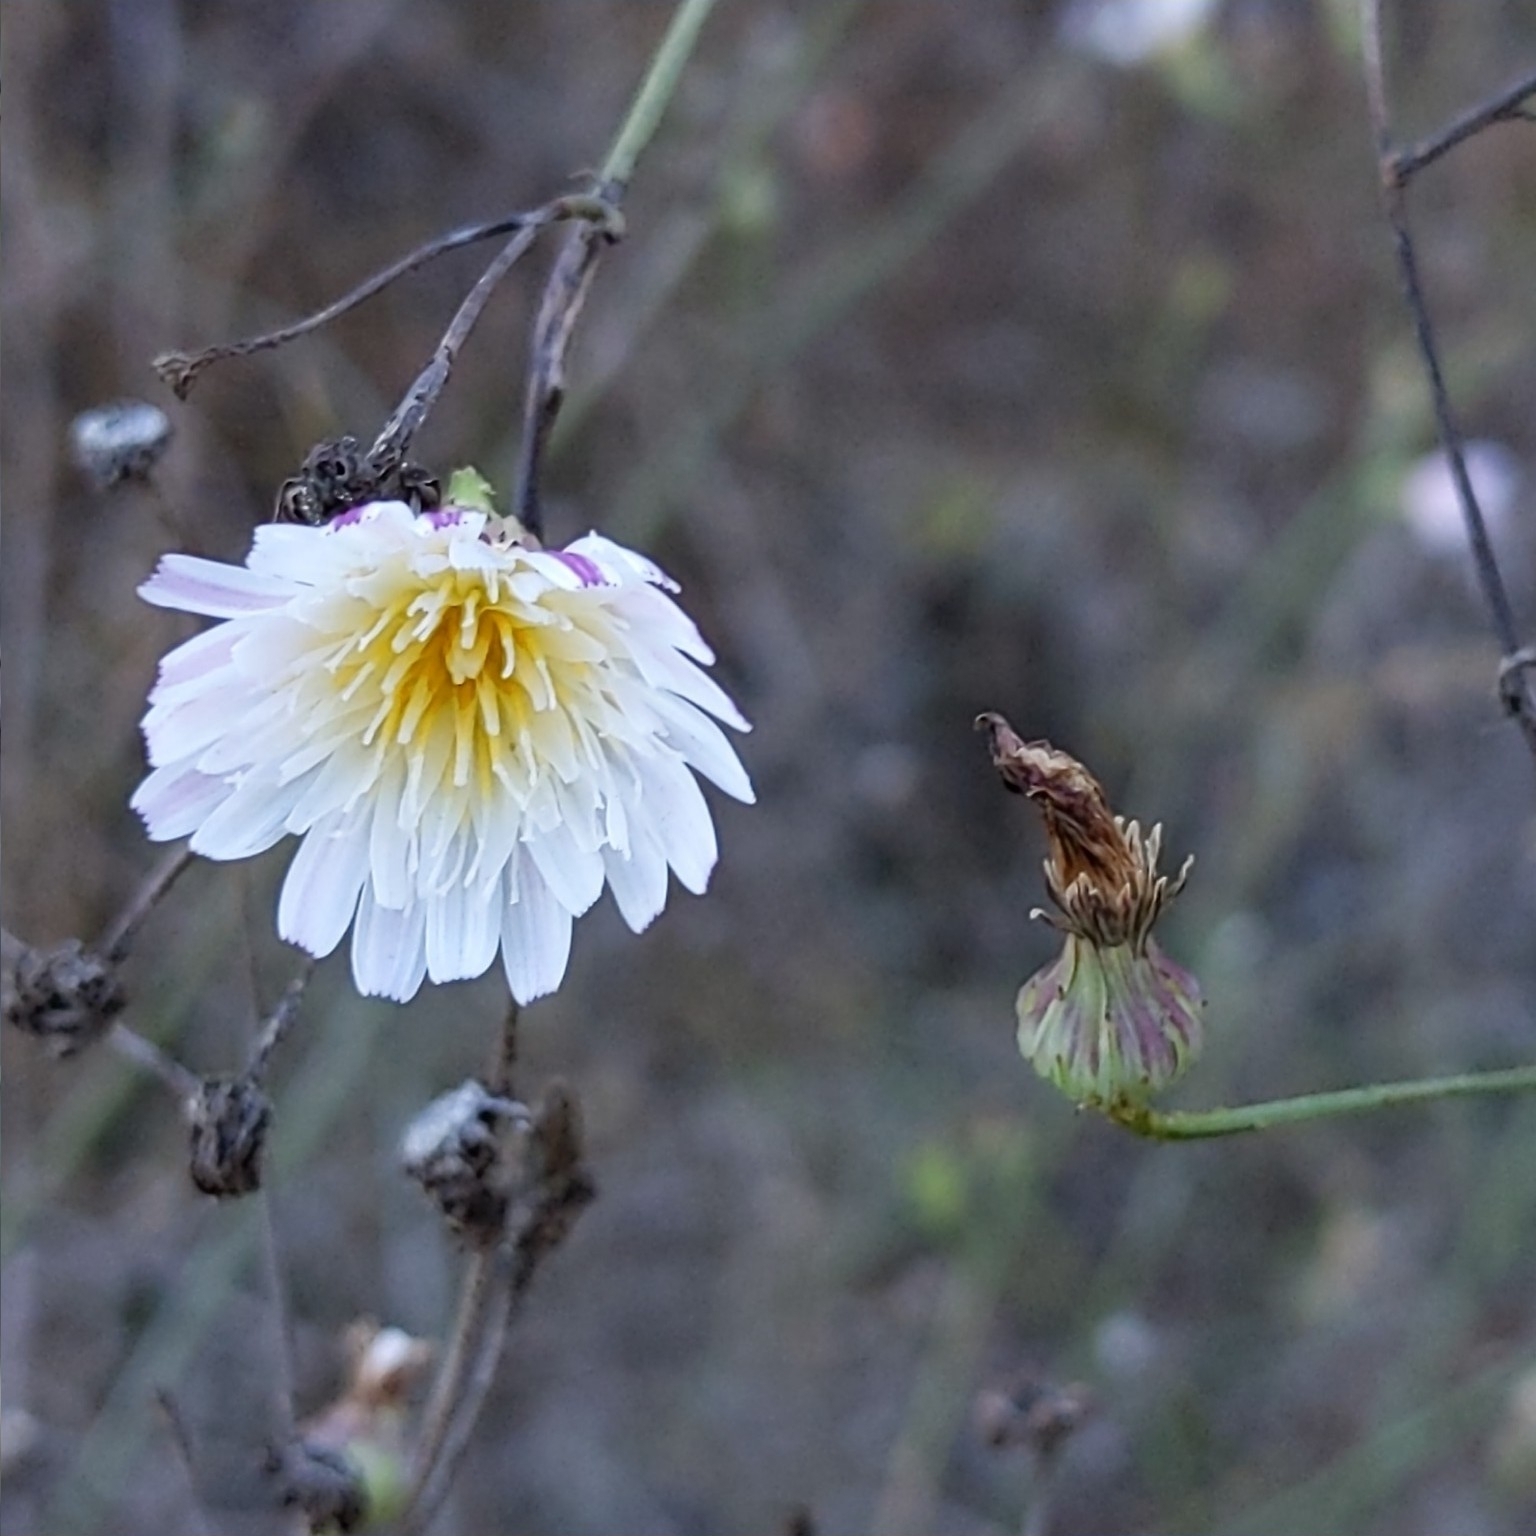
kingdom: Plantae
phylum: Tracheophyta
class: Magnoliopsida
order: Asterales
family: Asteraceae
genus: Malacothrix
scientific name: Malacothrix saxatilis
